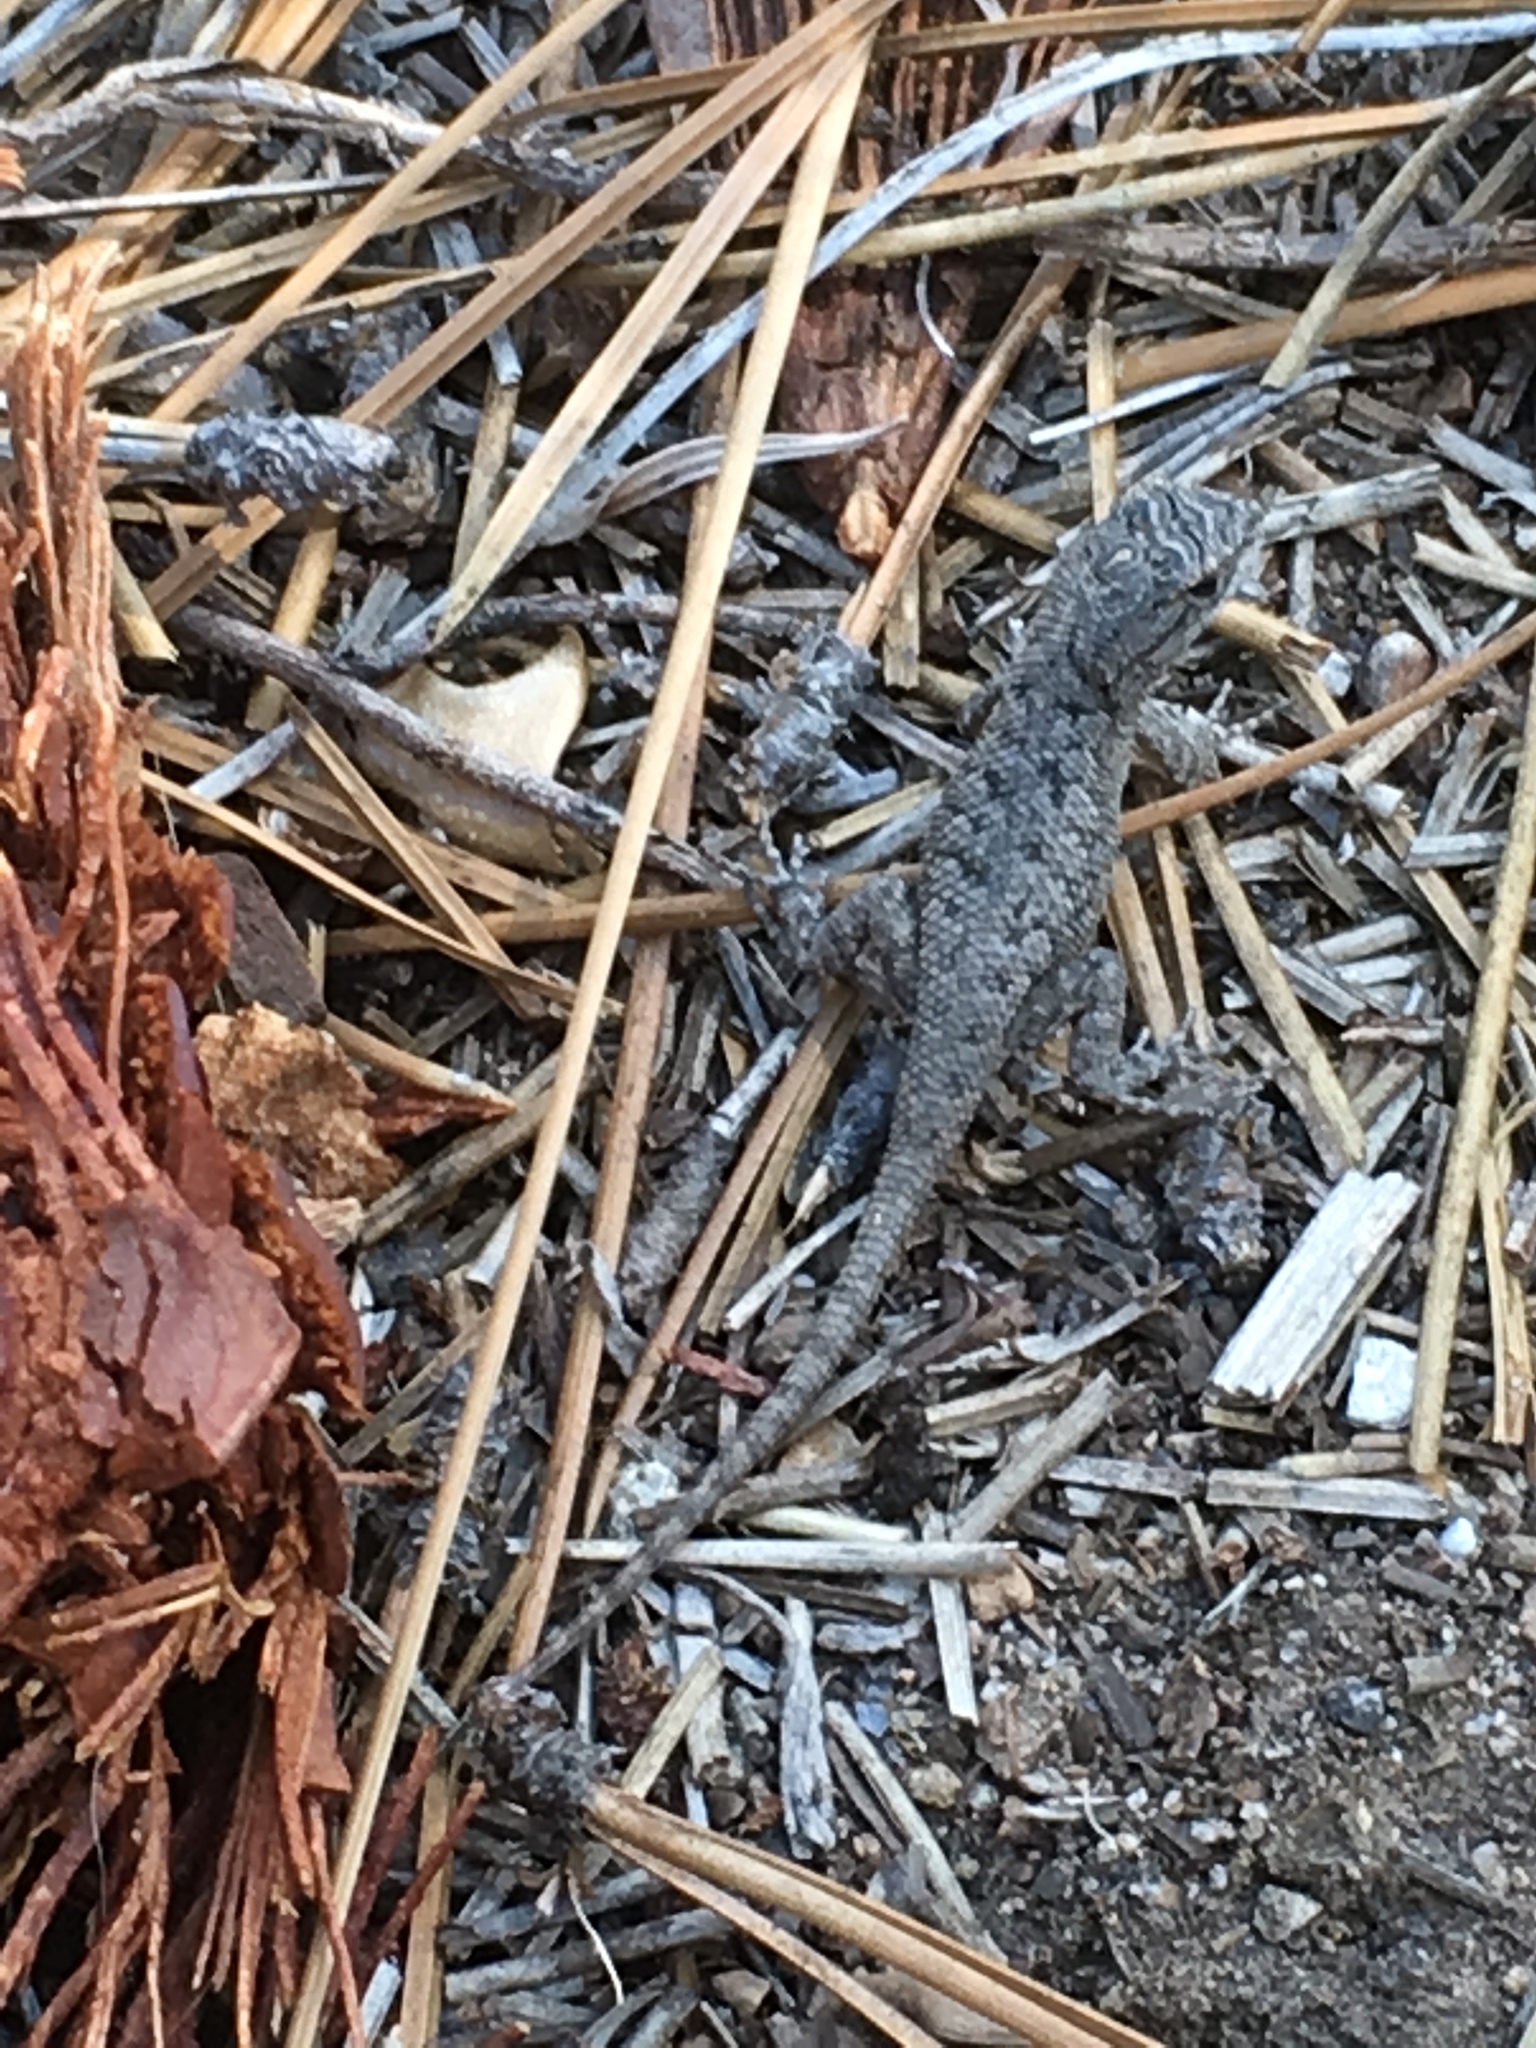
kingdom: Animalia
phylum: Chordata
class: Squamata
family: Phrynosomatidae
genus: Sceloporus
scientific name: Sceloporus occidentalis
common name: Western fence lizard
